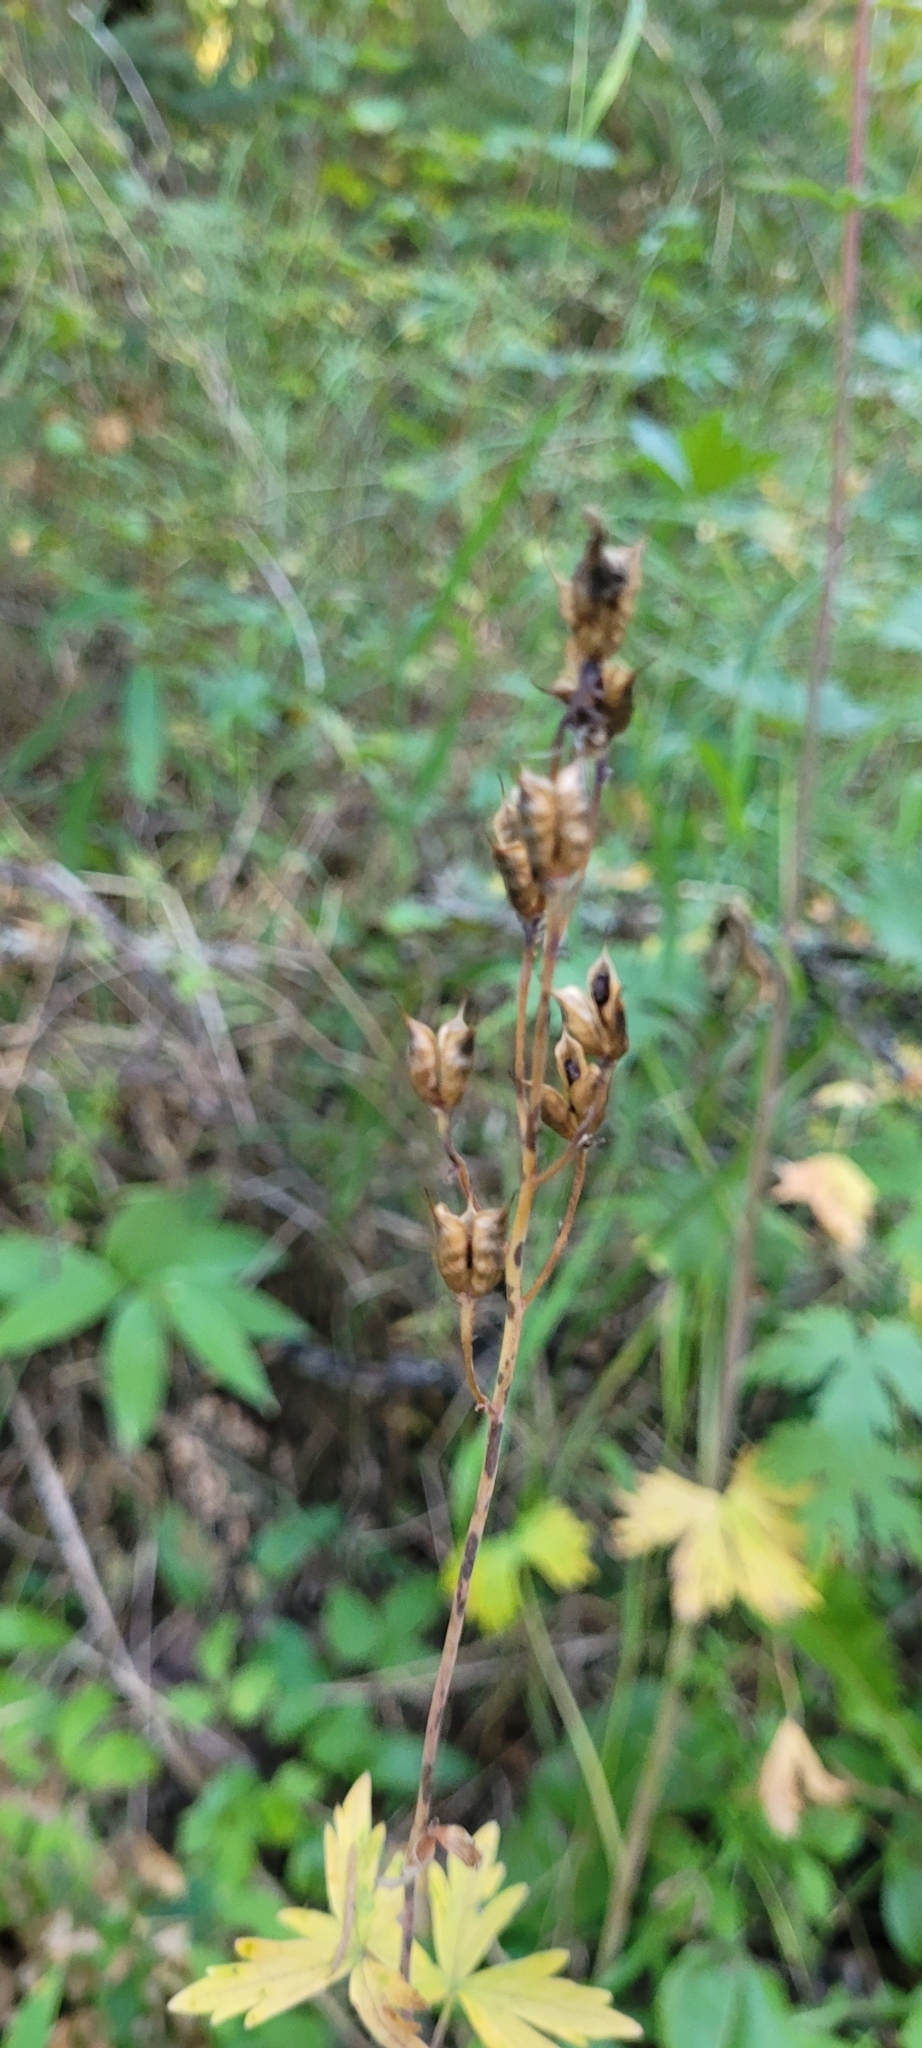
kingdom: Plantae
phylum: Tracheophyta
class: Magnoliopsida
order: Ranunculales
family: Ranunculaceae
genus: Delphinium
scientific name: Delphinium glaucum
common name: Brown's larkspur
